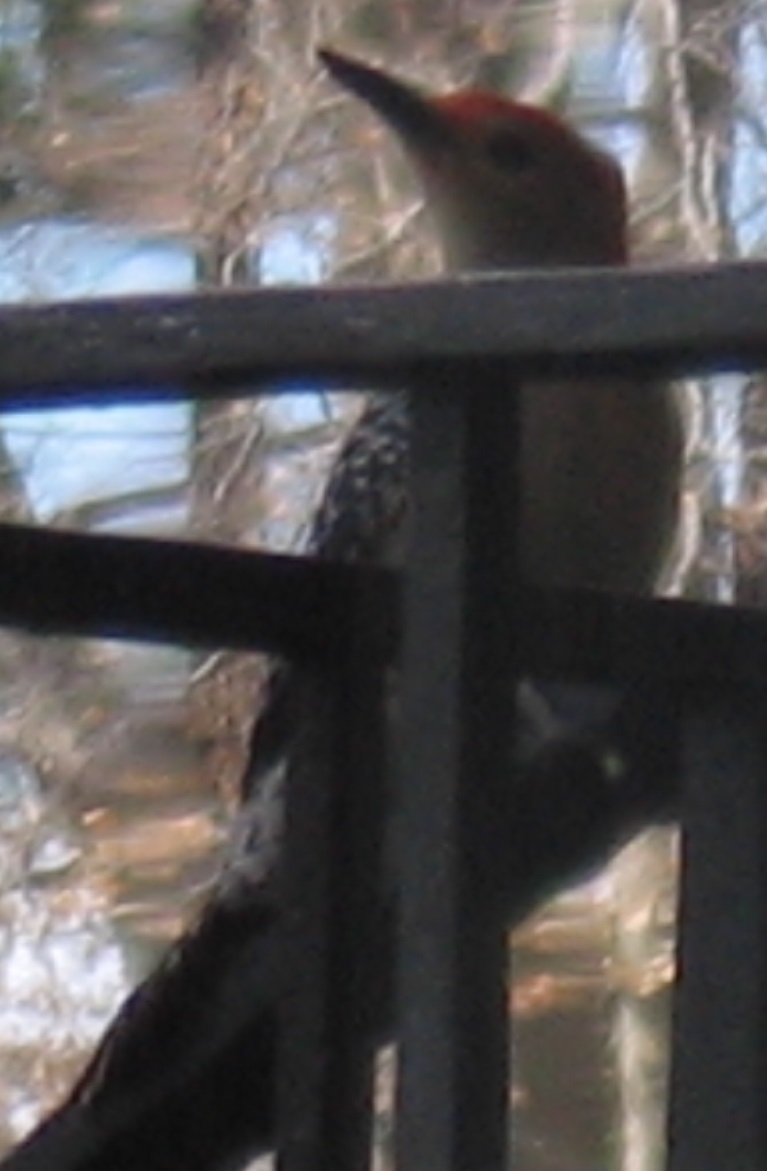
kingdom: Animalia
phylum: Chordata
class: Aves
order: Piciformes
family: Picidae
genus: Melanerpes
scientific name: Melanerpes carolinus
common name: Red-bellied woodpecker
